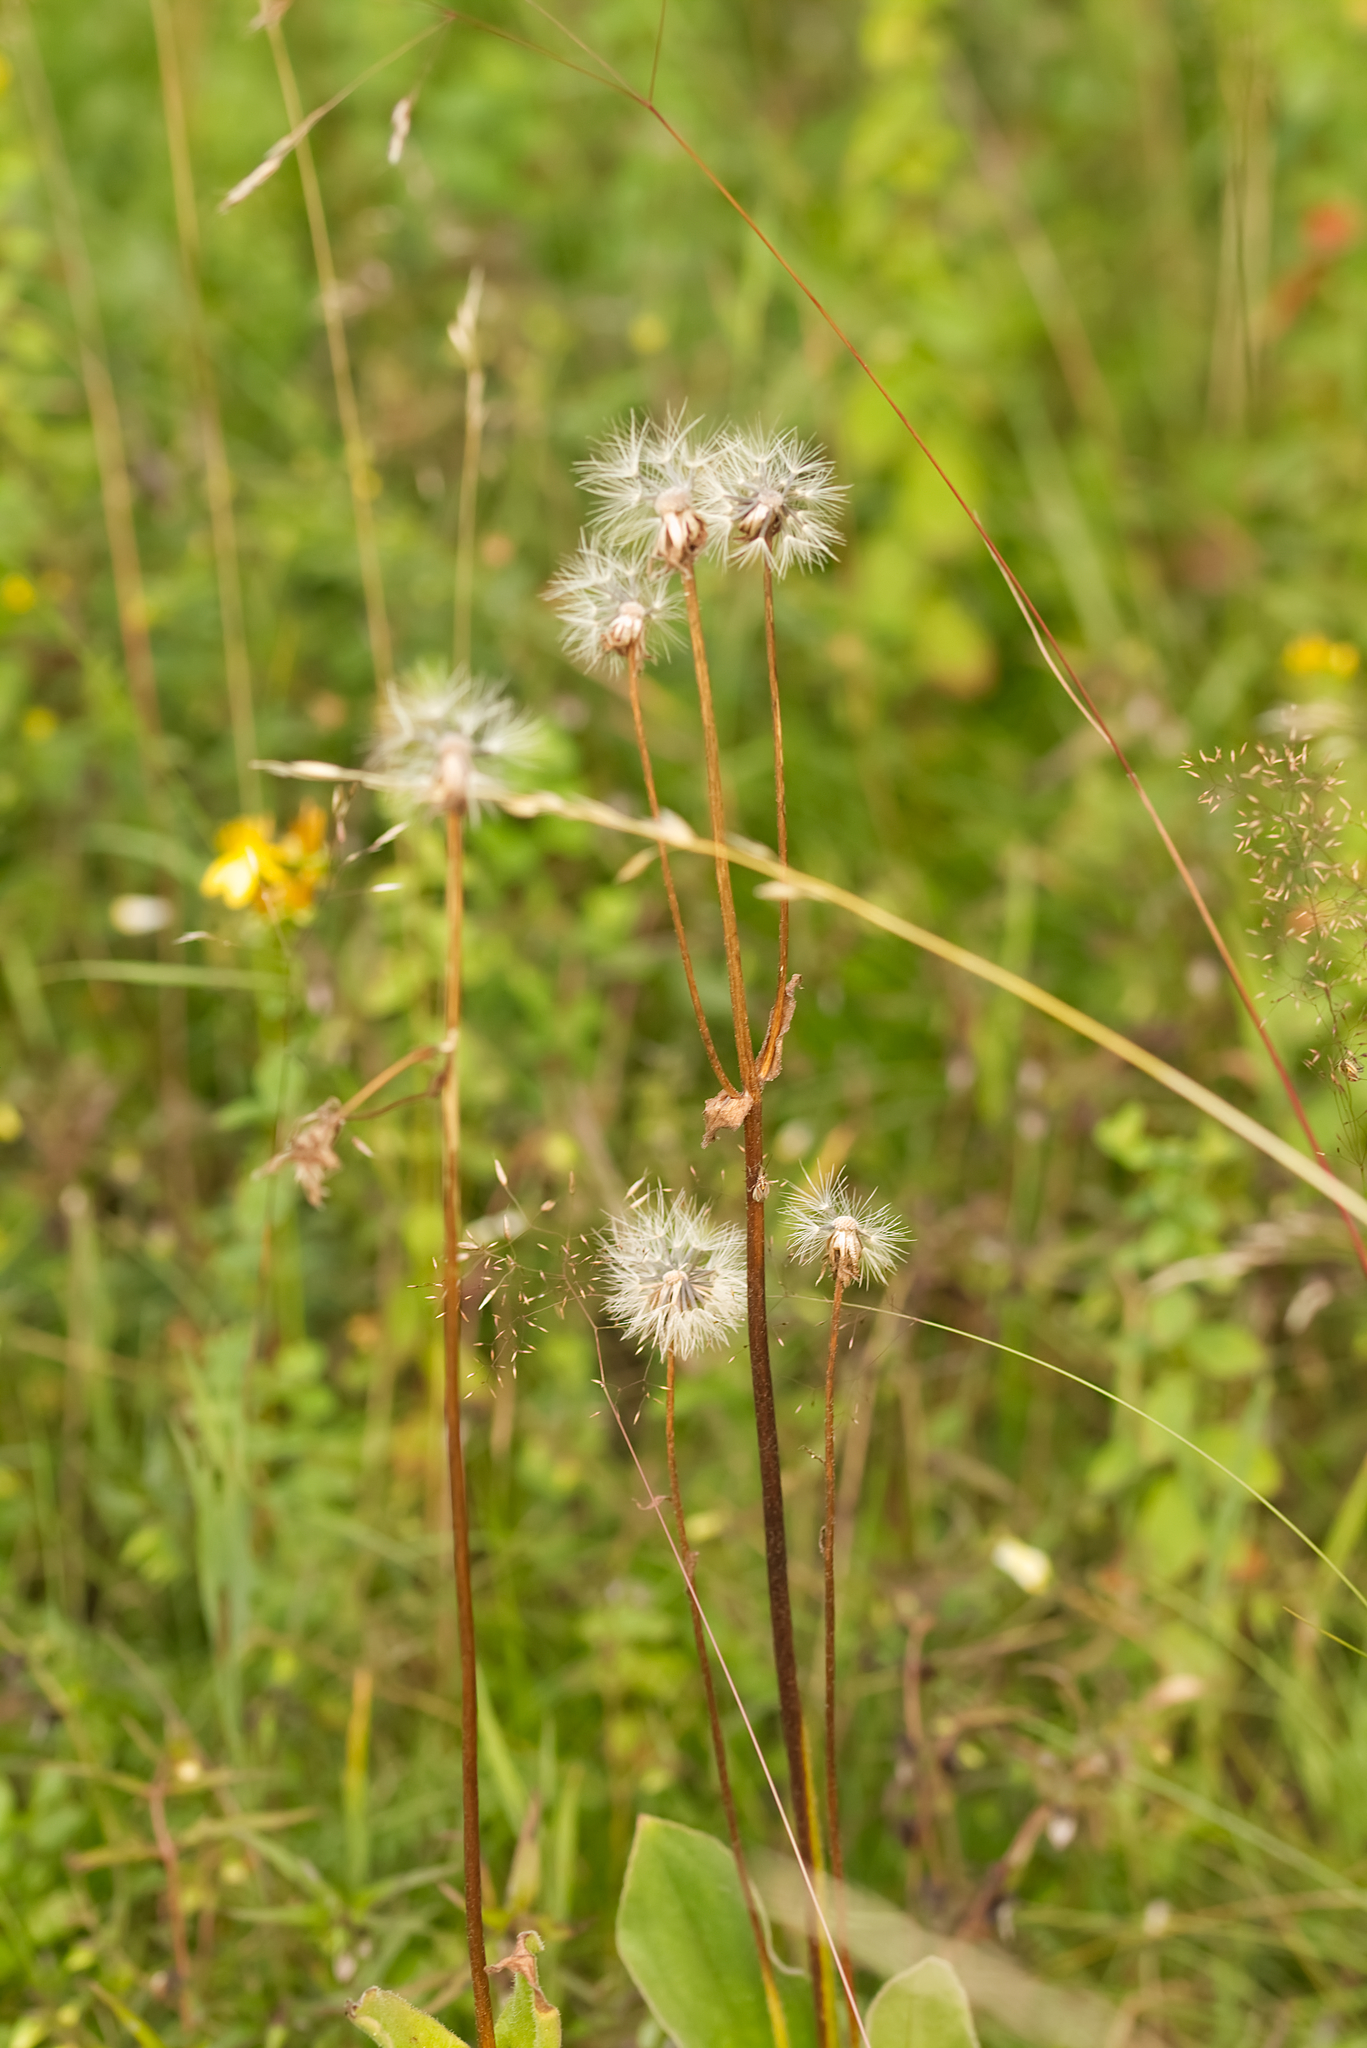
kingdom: Plantae
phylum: Tracheophyta
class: Magnoliopsida
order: Asterales
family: Asteraceae
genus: Arnica
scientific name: Arnica montana
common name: Leopard's bane
